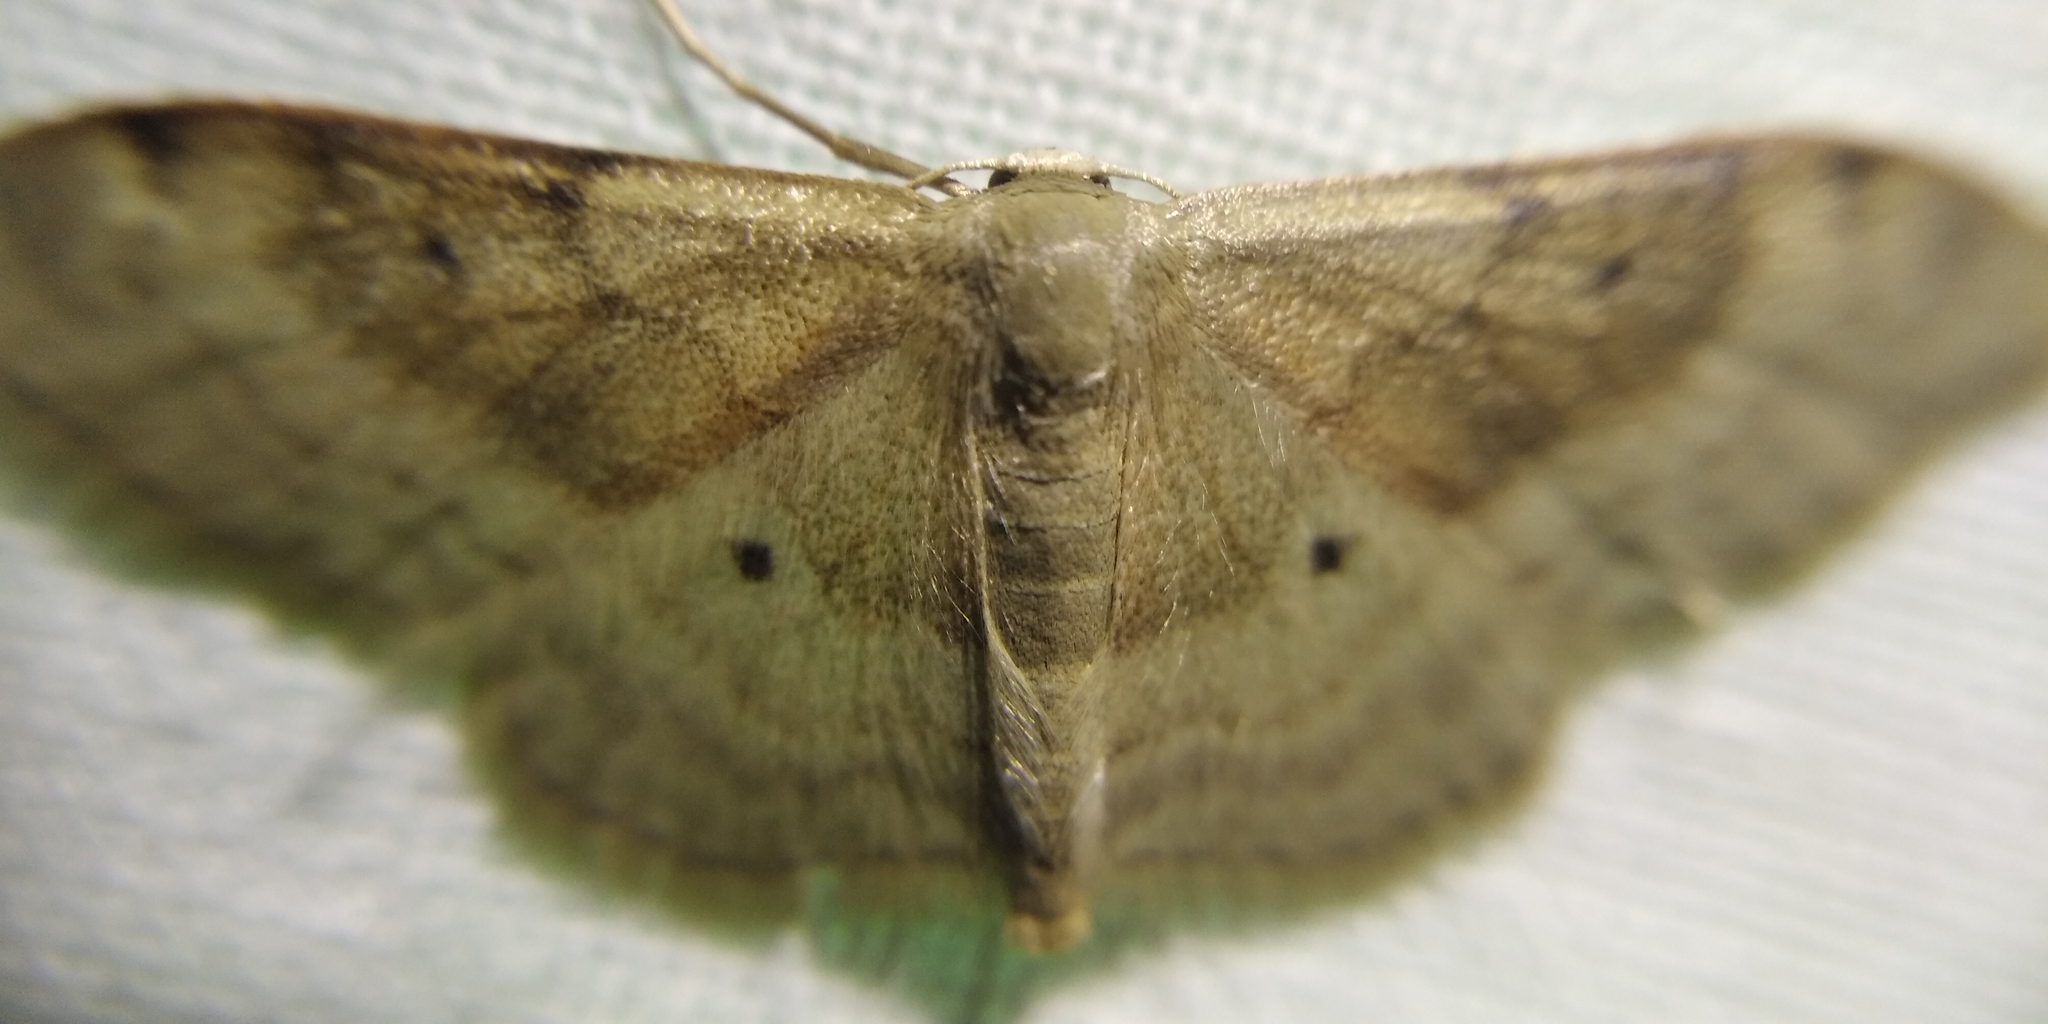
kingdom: Animalia
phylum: Arthropoda
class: Insecta
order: Lepidoptera
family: Geometridae
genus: Idaea
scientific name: Idaea degeneraria
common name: Portland ribbon wave
